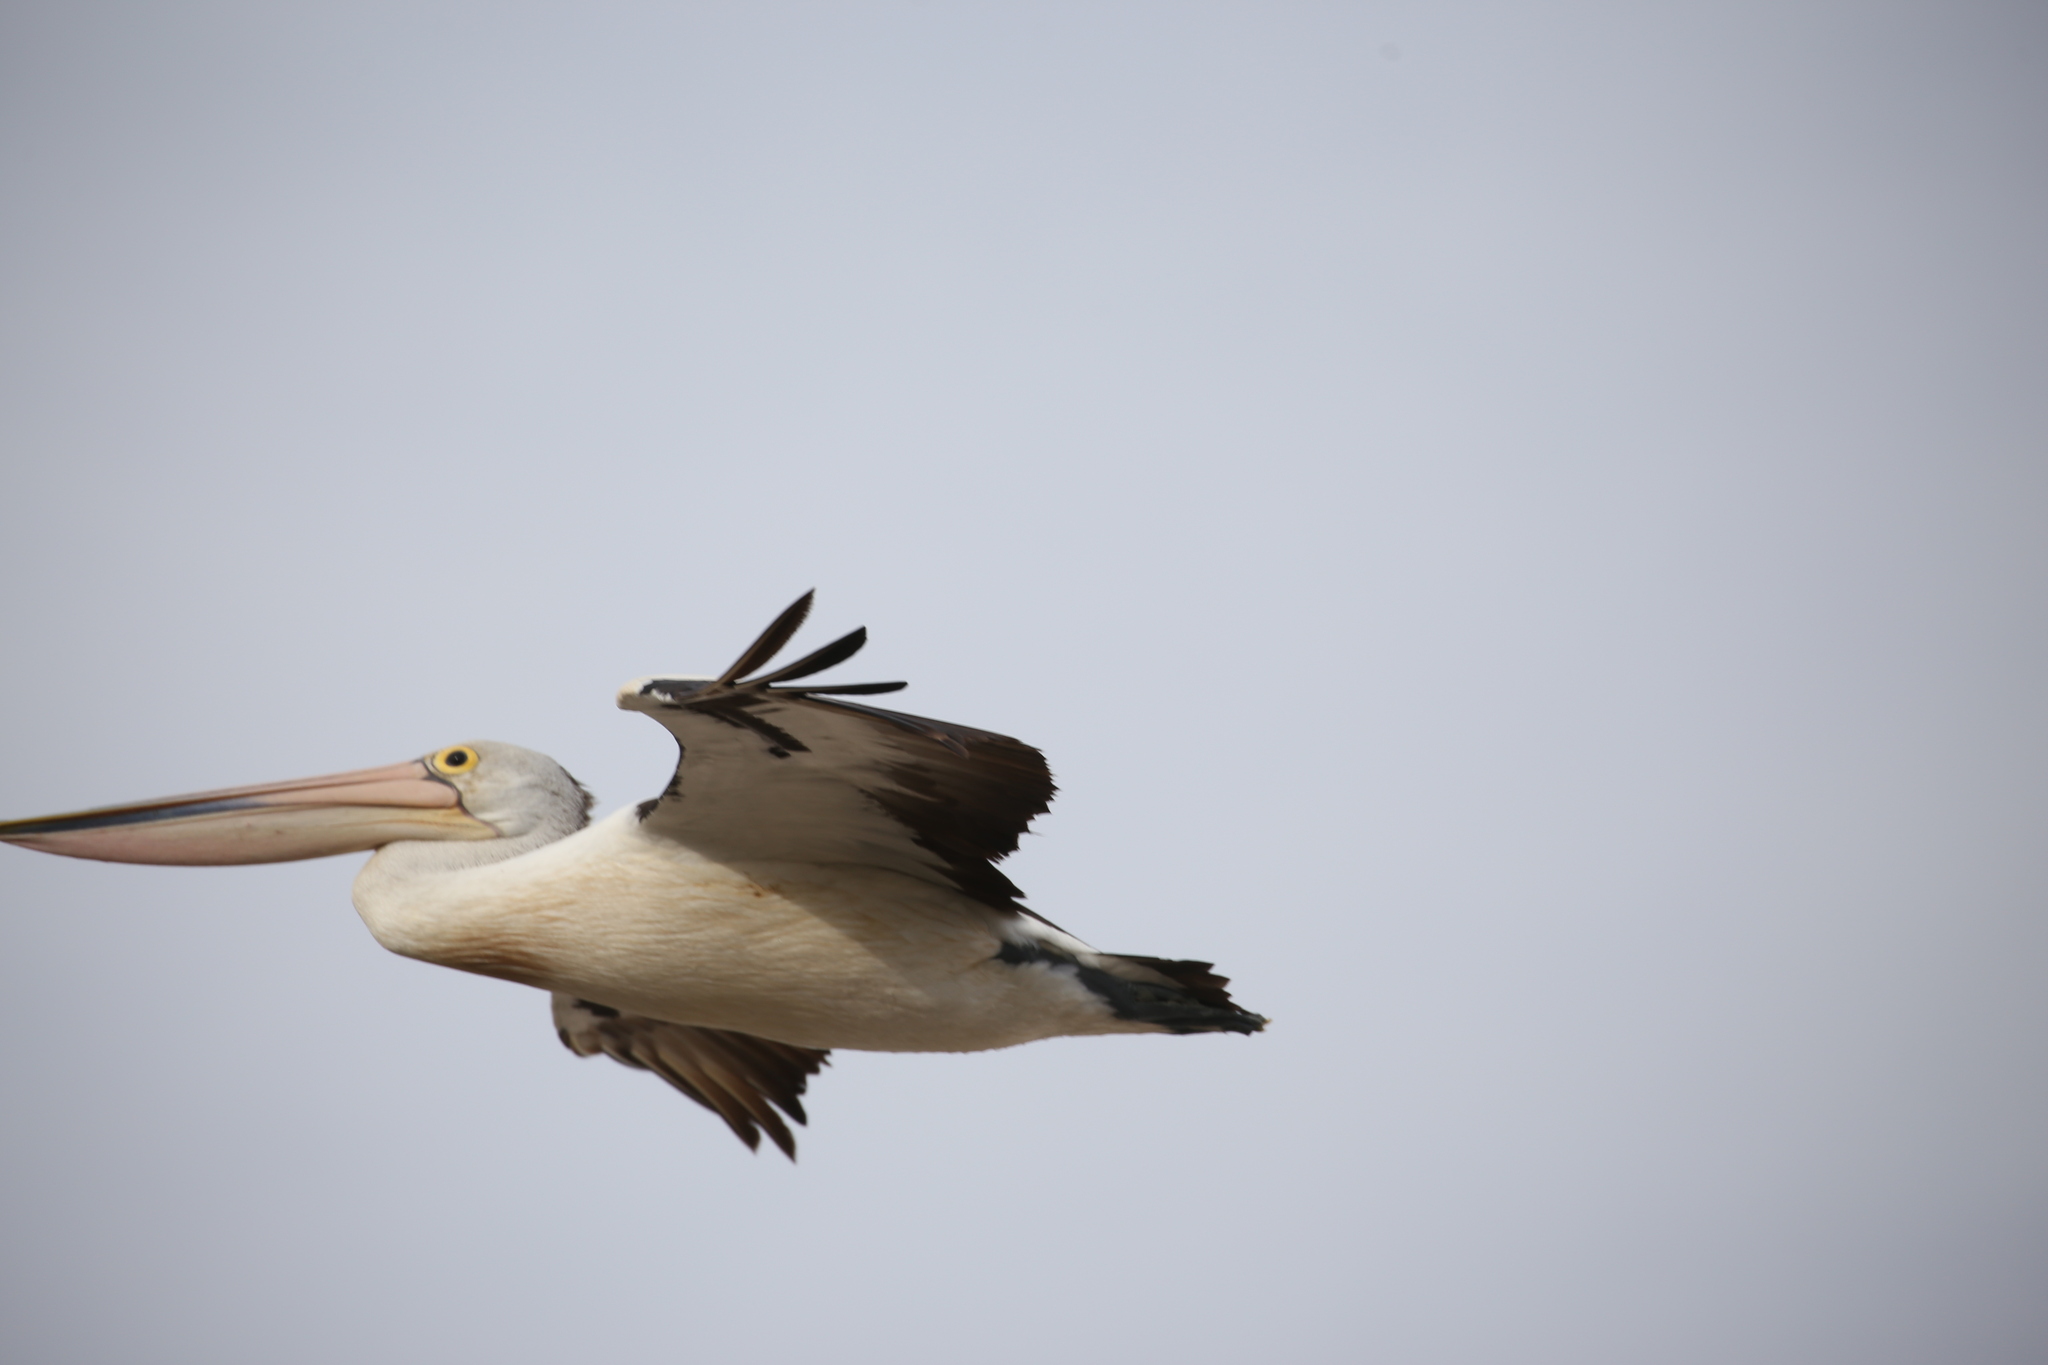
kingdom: Animalia
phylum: Chordata
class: Aves
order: Pelecaniformes
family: Pelecanidae
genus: Pelecanus
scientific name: Pelecanus conspicillatus
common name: Australian pelican
